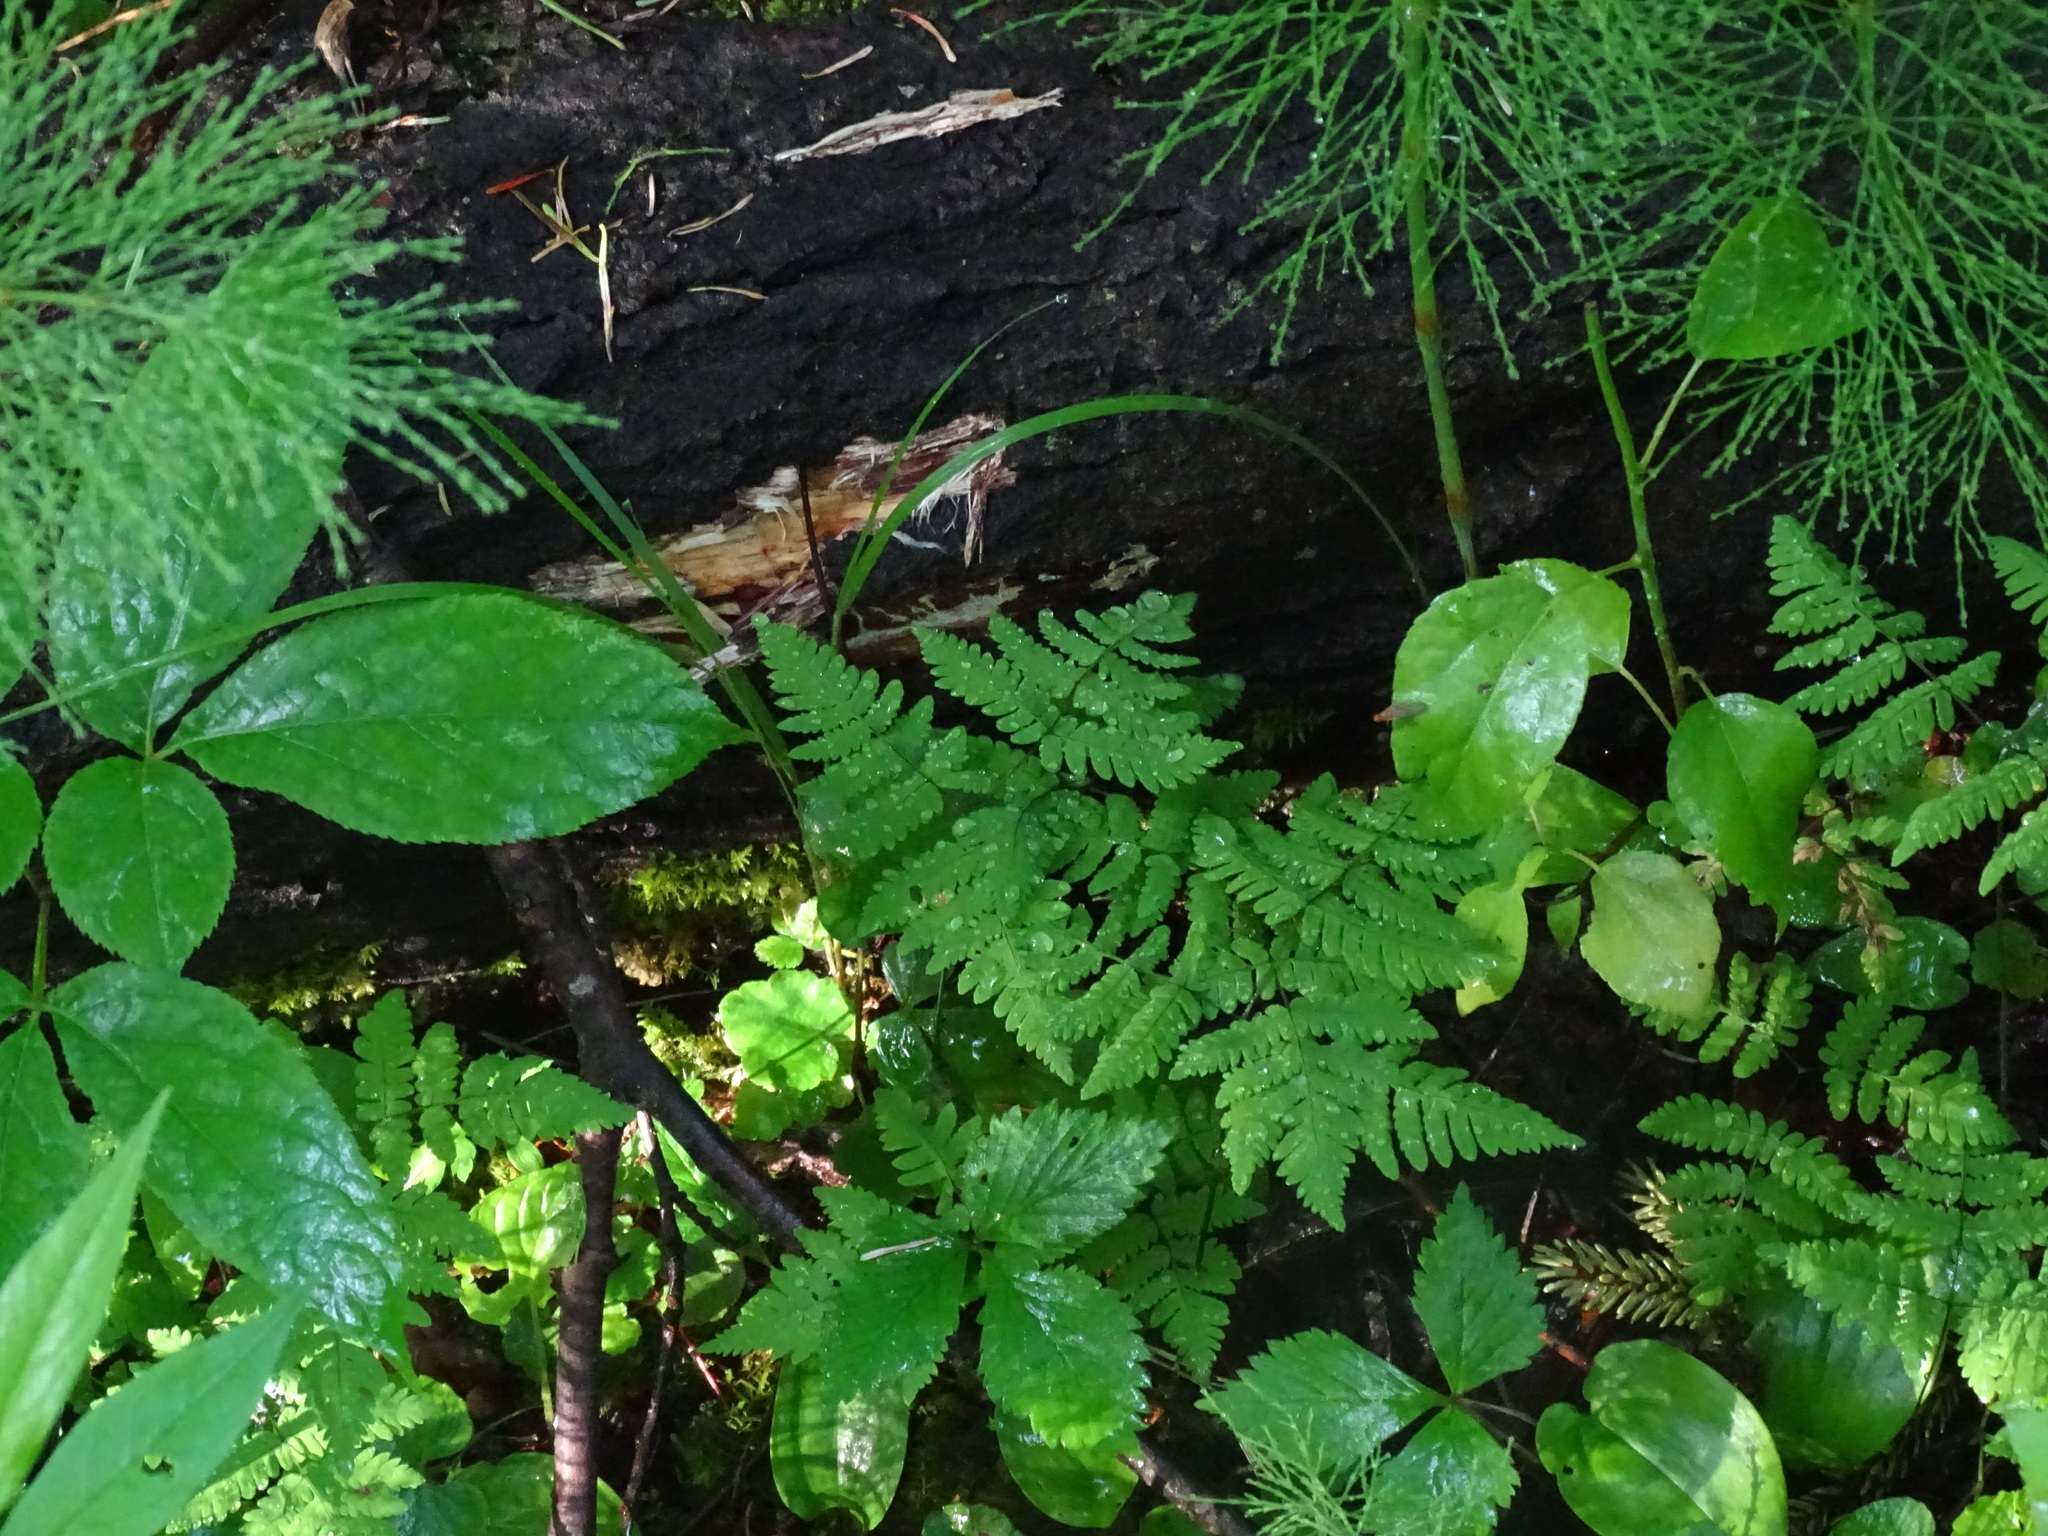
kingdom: Plantae
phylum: Tracheophyta
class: Polypodiopsida
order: Polypodiales
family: Cystopteridaceae
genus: Gymnocarpium
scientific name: Gymnocarpium dryopteris
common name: Oak fern
